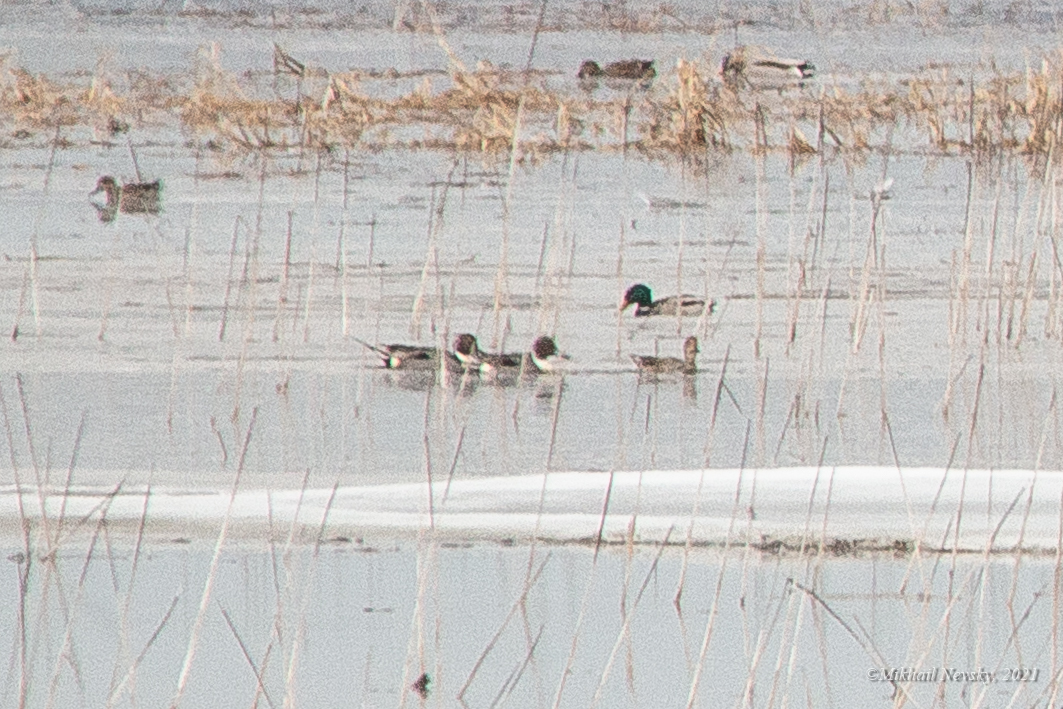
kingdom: Animalia
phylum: Chordata
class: Aves
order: Anseriformes
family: Anatidae
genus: Anas
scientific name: Anas acuta
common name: Northern pintail
